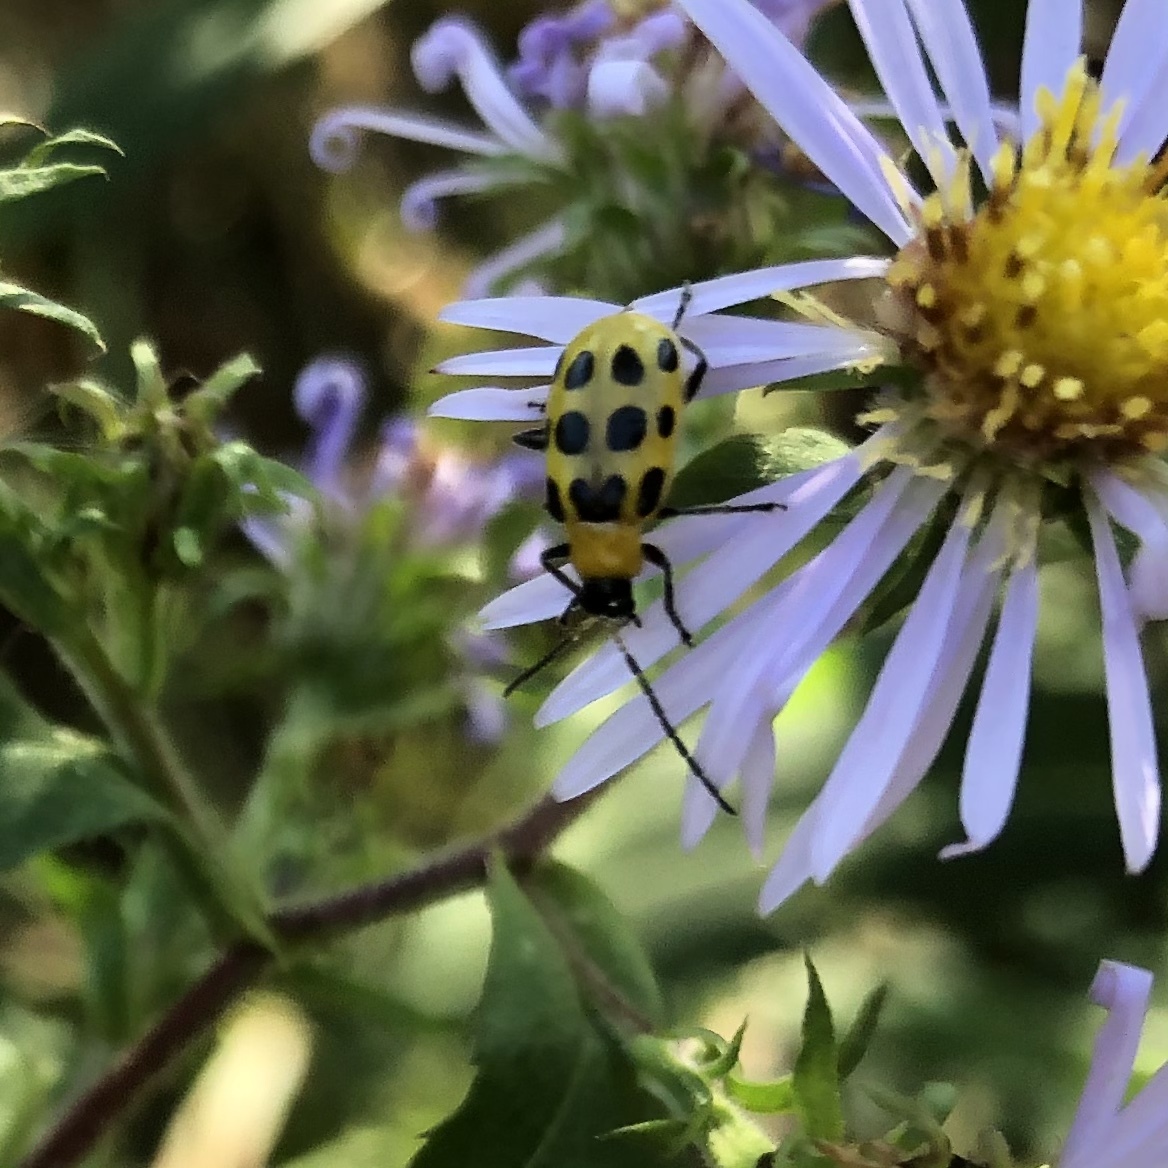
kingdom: Animalia
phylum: Arthropoda
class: Insecta
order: Coleoptera
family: Chrysomelidae
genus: Diabrotica
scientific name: Diabrotica undecimpunctata
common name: Spotted cucumber beetle
